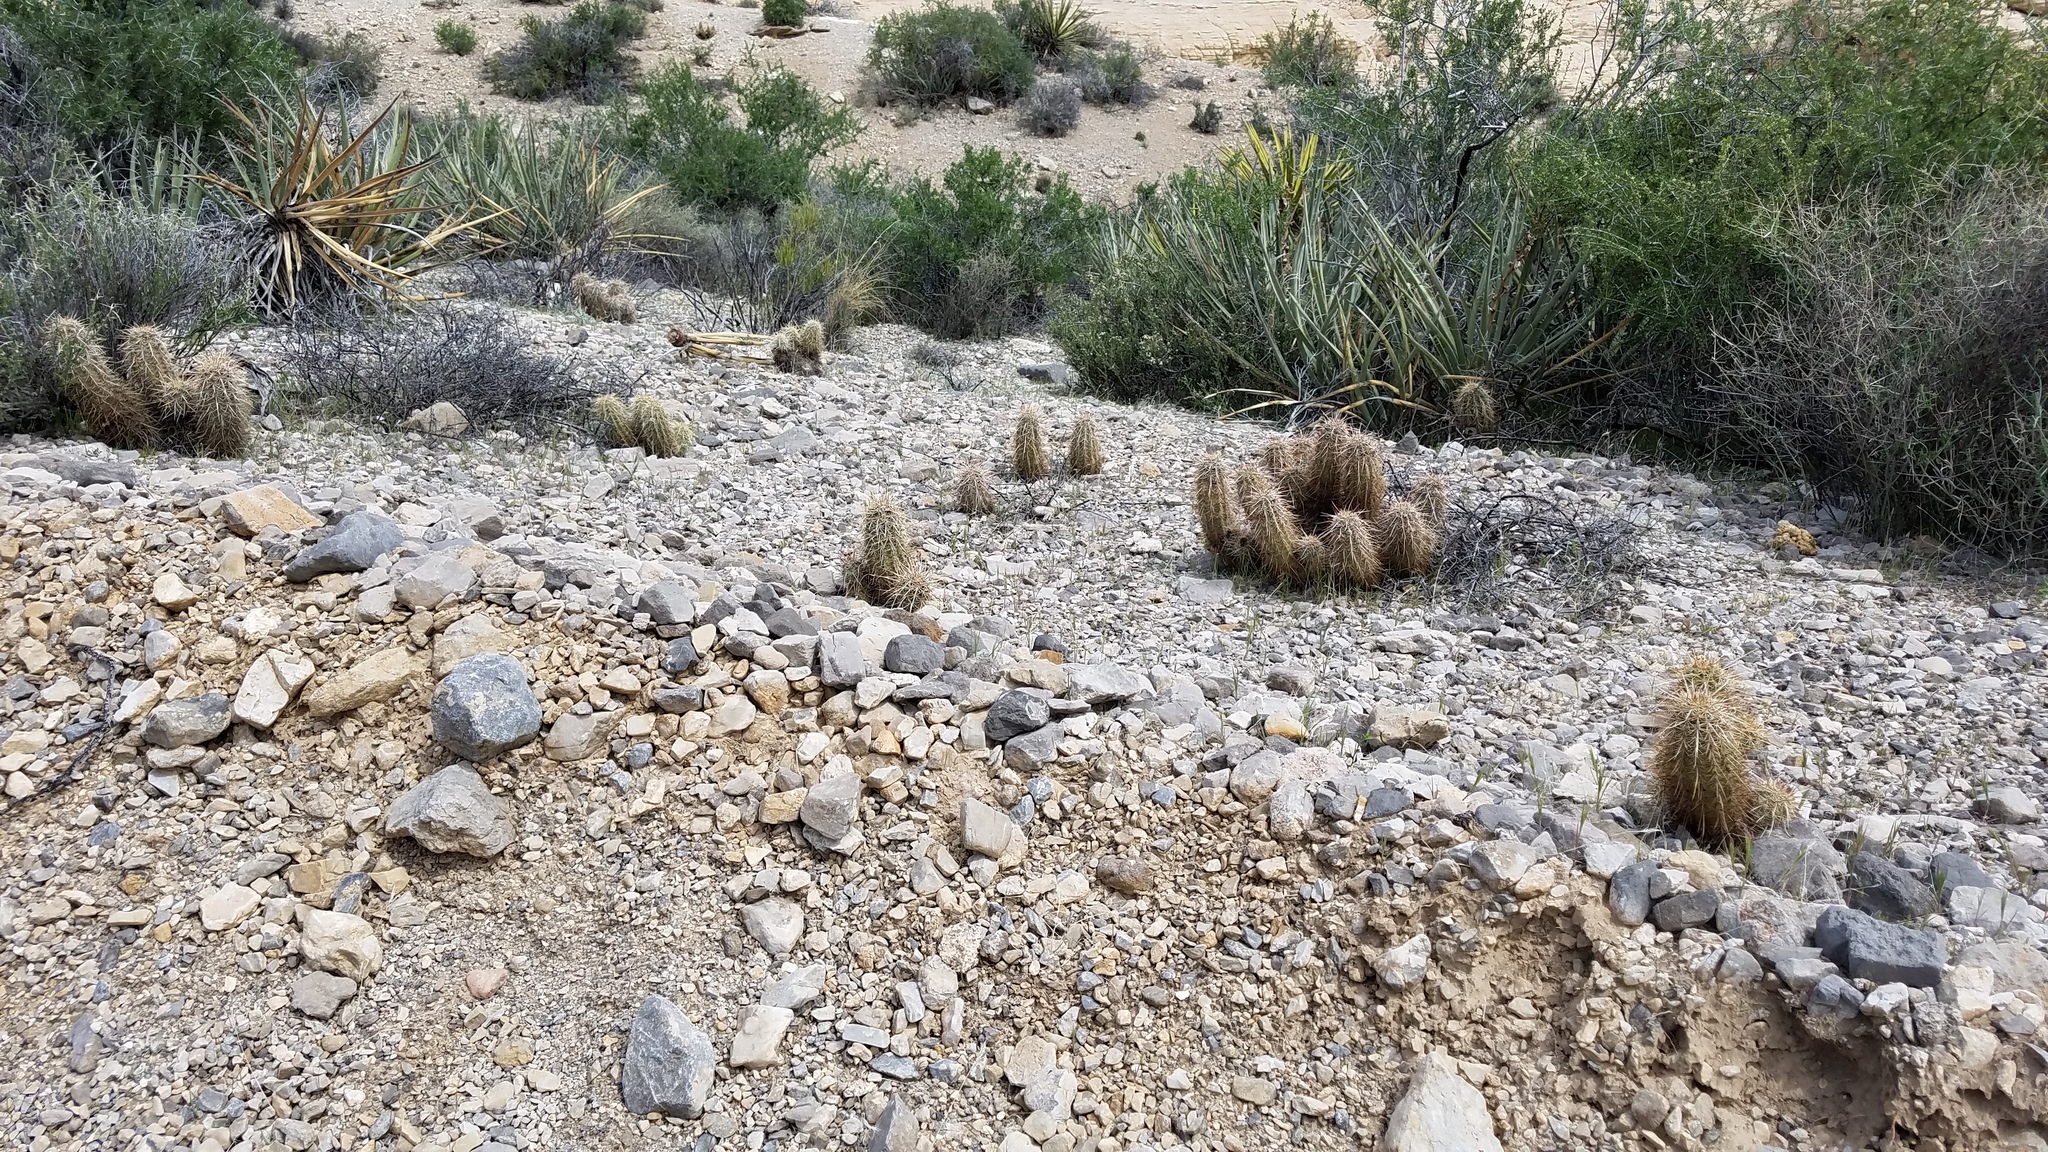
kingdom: Plantae
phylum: Tracheophyta
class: Magnoliopsida
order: Caryophyllales
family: Cactaceae
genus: Echinocereus
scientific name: Echinocereus engelmannii
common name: Engelmann's hedgehog cactus
